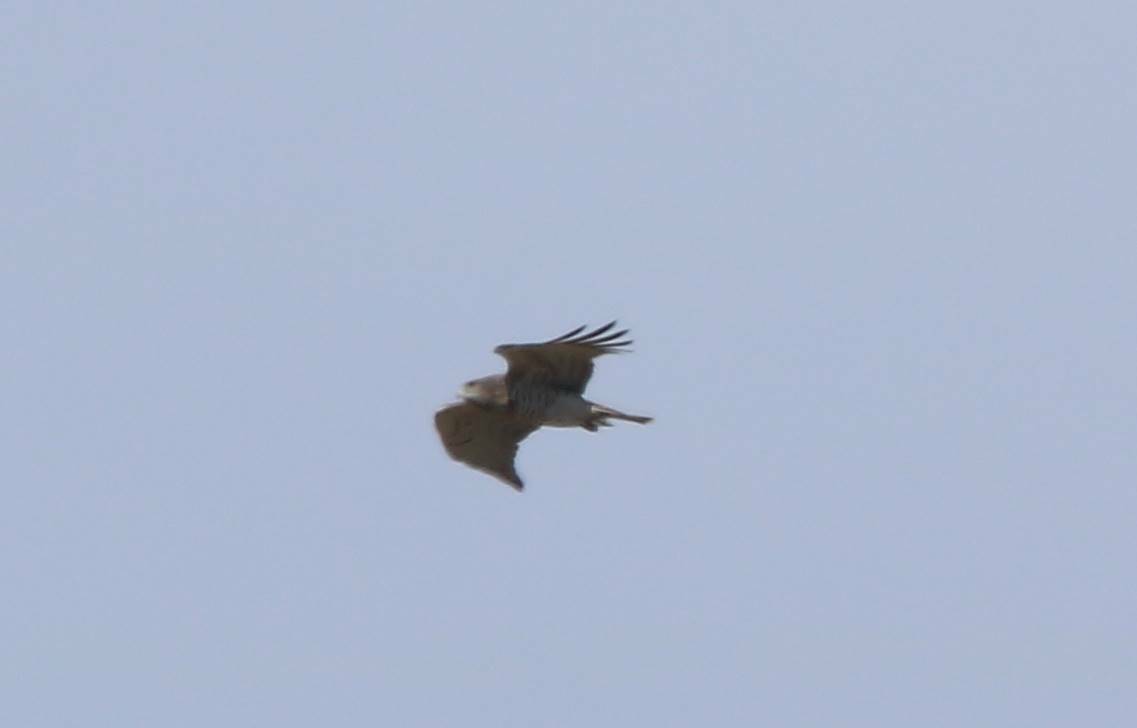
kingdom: Animalia
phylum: Chordata
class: Aves
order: Accipitriformes
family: Accipitridae
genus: Circaetus
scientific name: Circaetus gallicus
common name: Short-toed snake eagle
